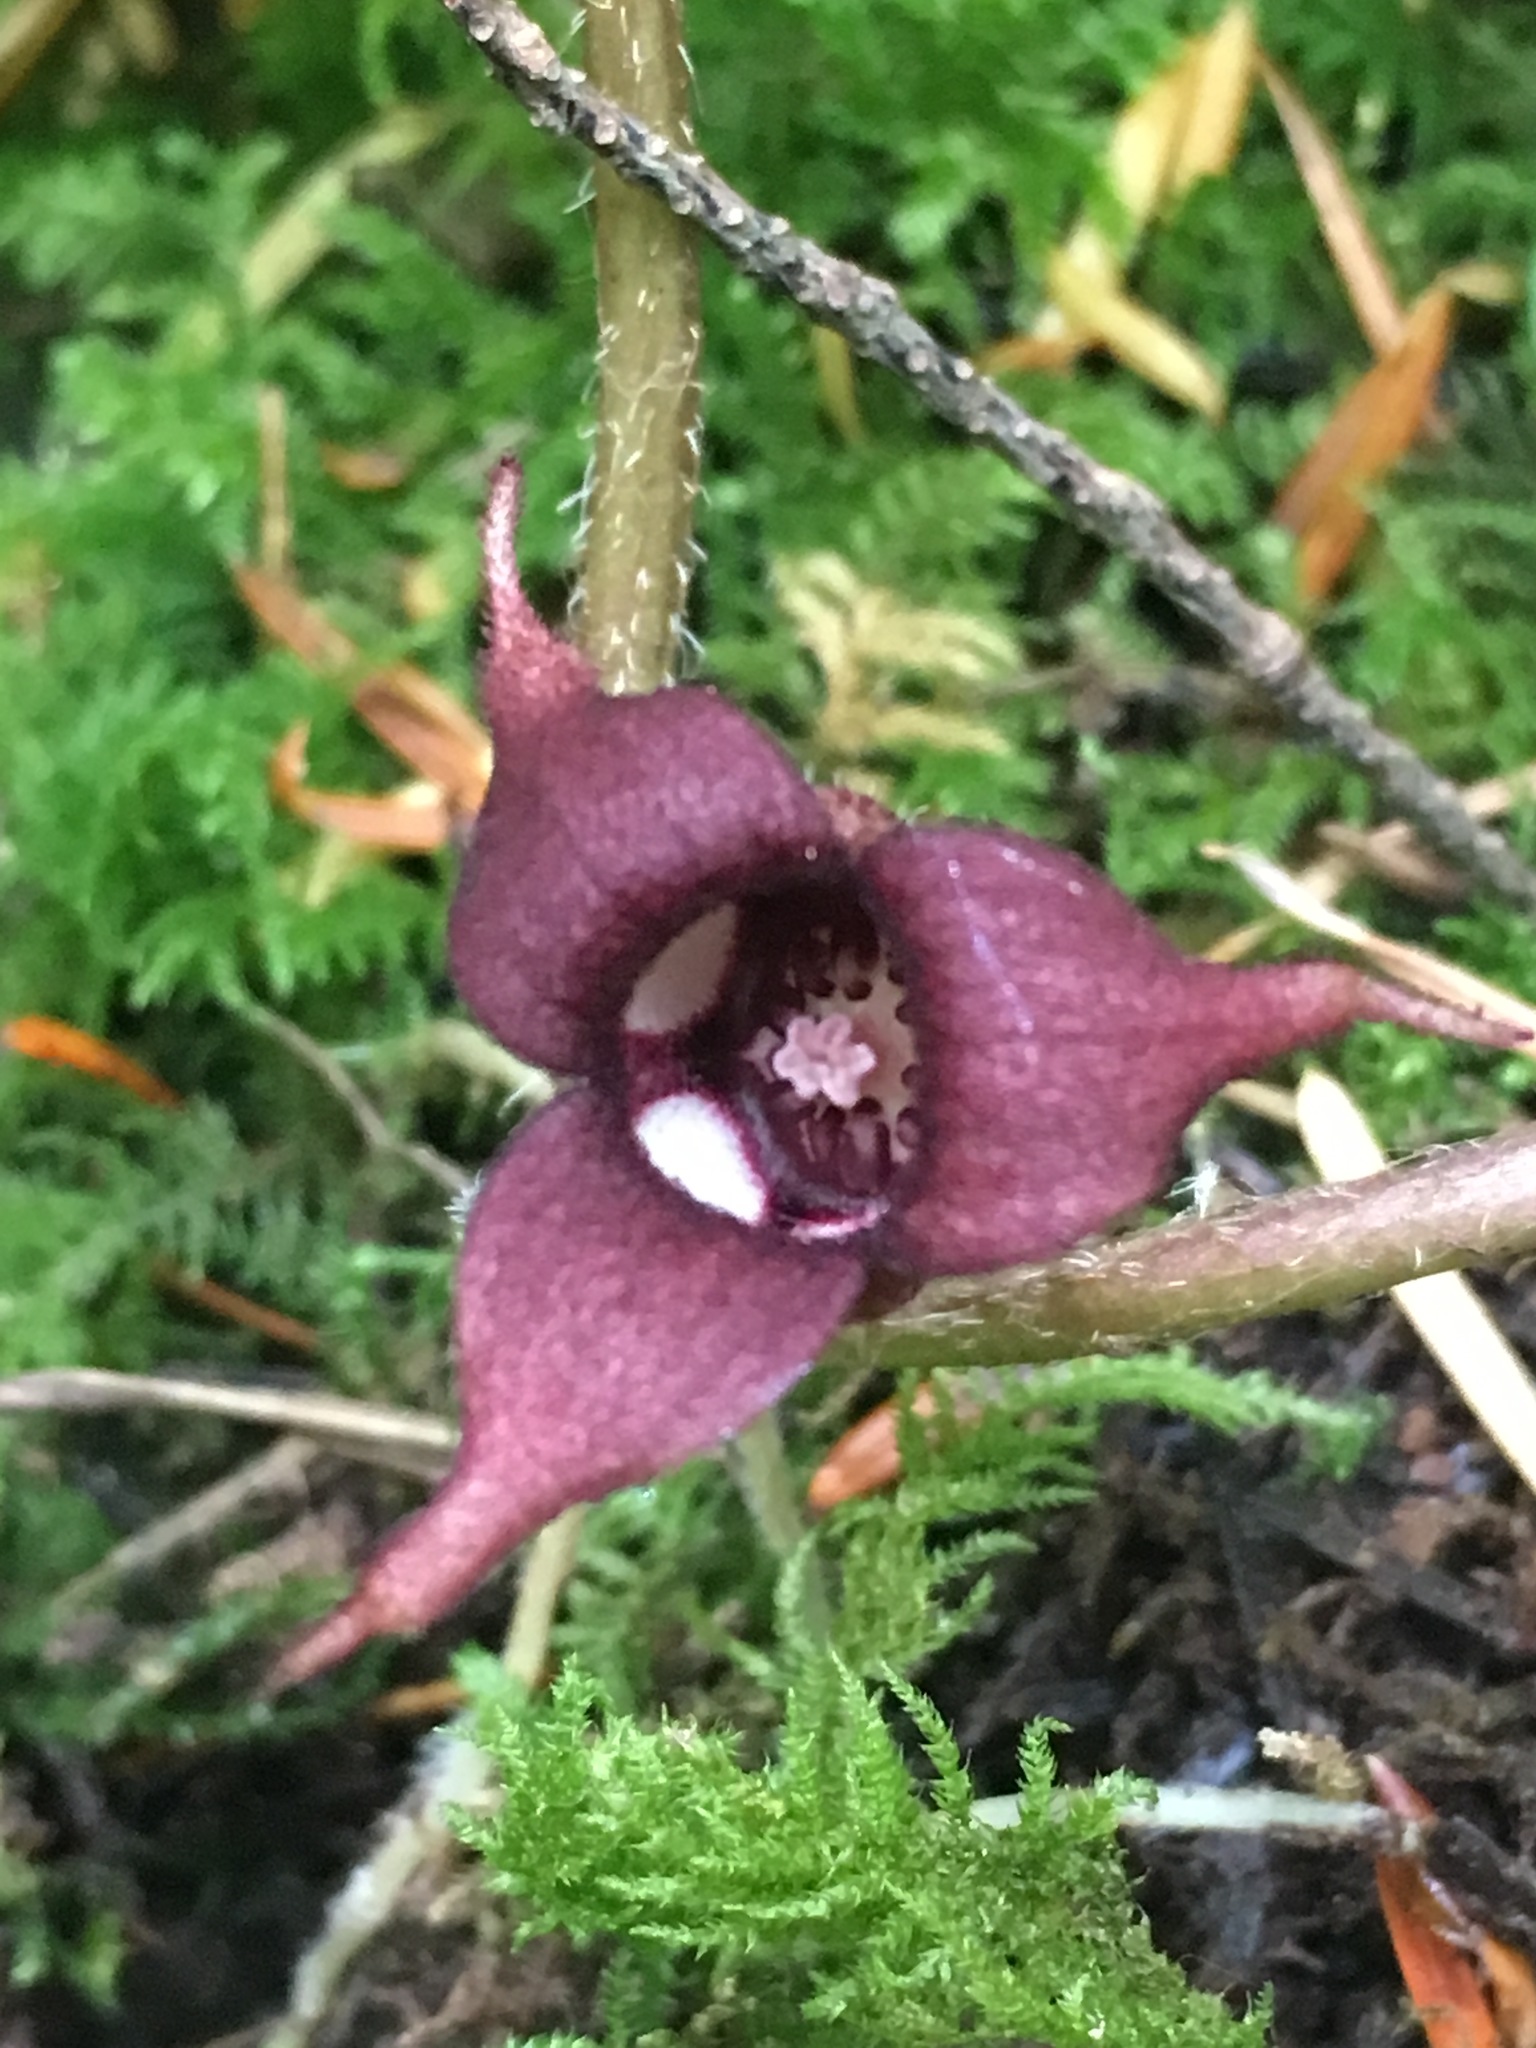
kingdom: Plantae
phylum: Tracheophyta
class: Magnoliopsida
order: Piperales
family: Aristolochiaceae
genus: Asarum
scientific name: Asarum caudatum
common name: Wild ginger
